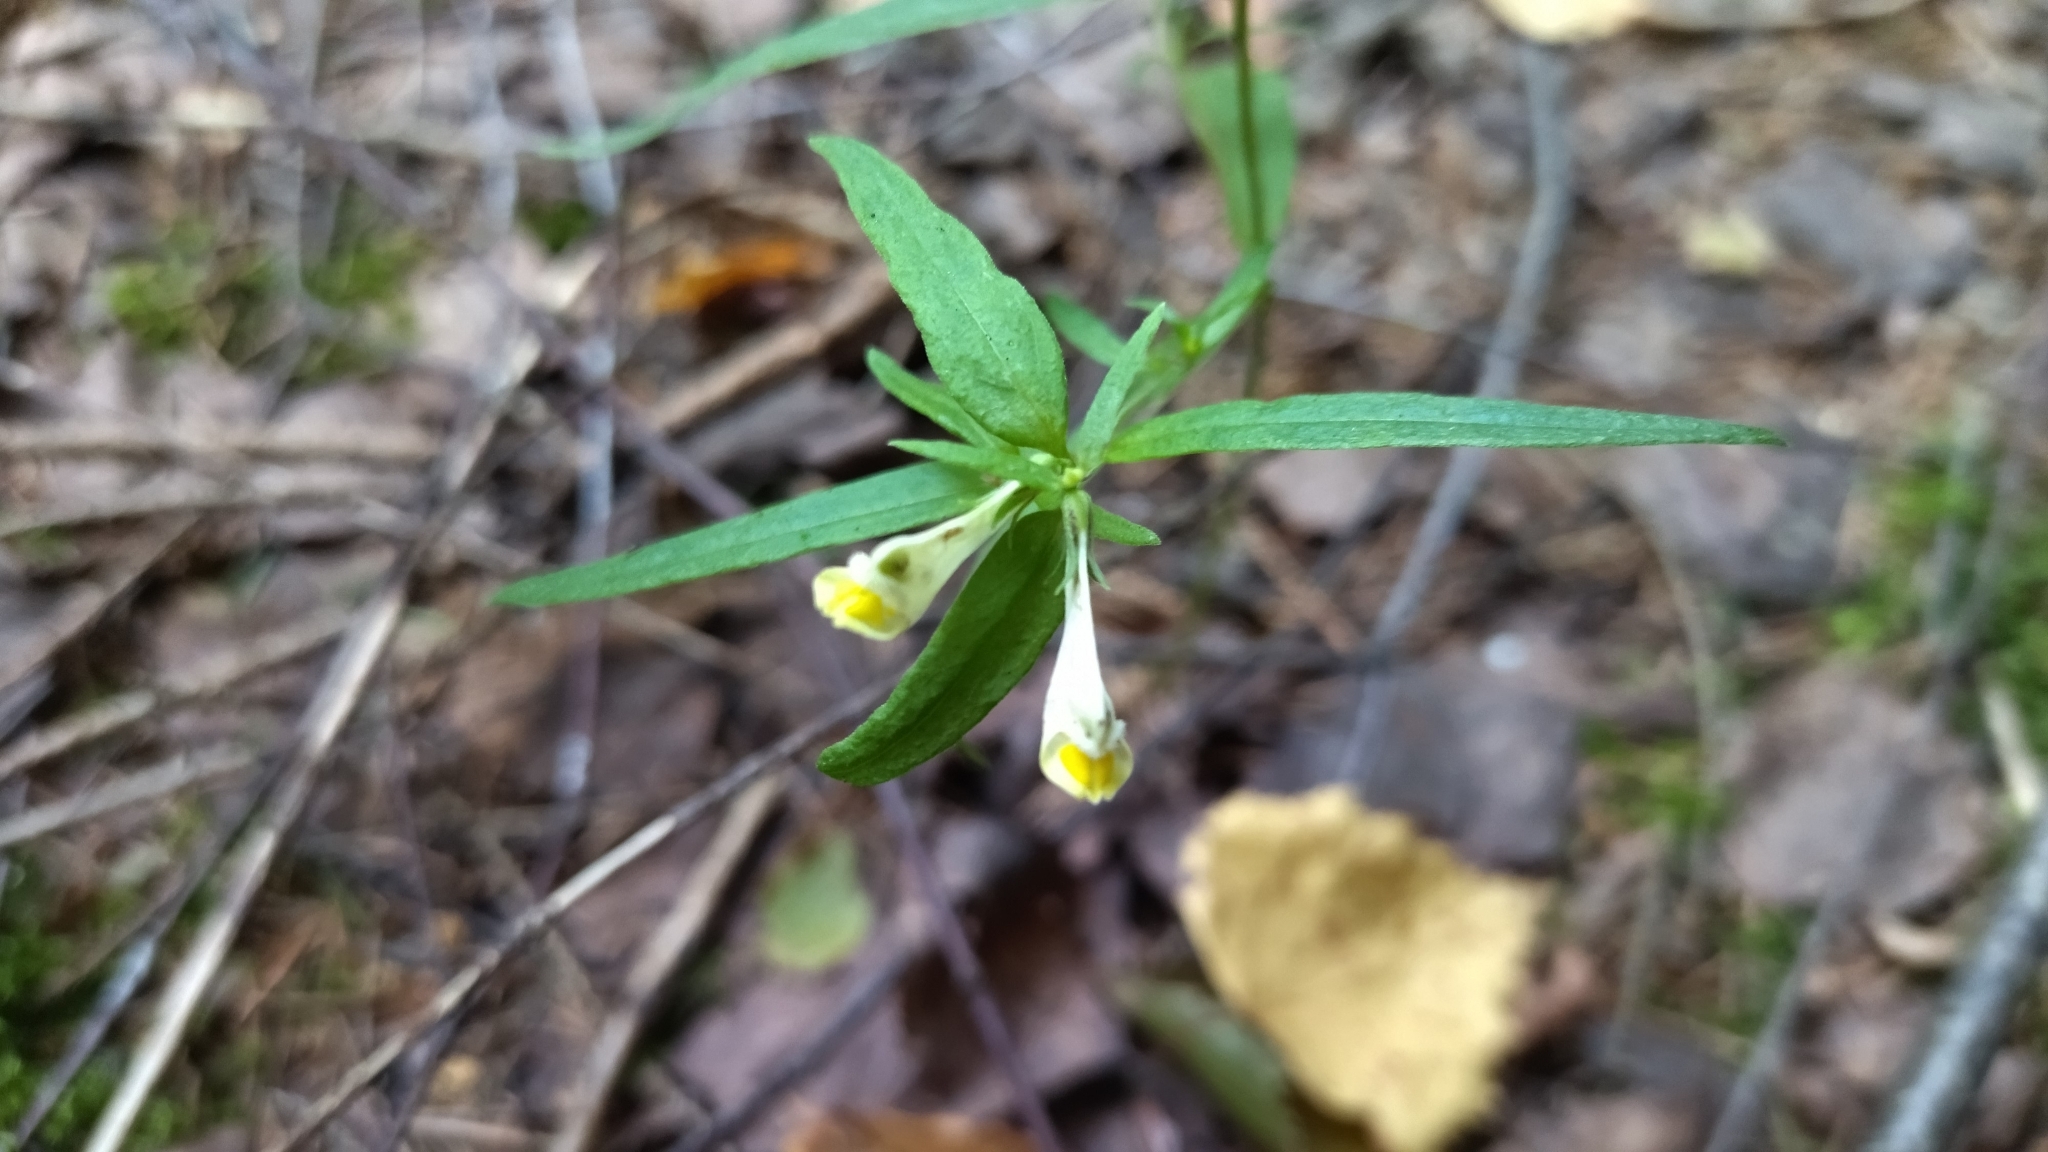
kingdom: Plantae
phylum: Tracheophyta
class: Magnoliopsida
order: Lamiales
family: Orobanchaceae
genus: Melampyrum
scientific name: Melampyrum pratense
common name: Common cow-wheat
